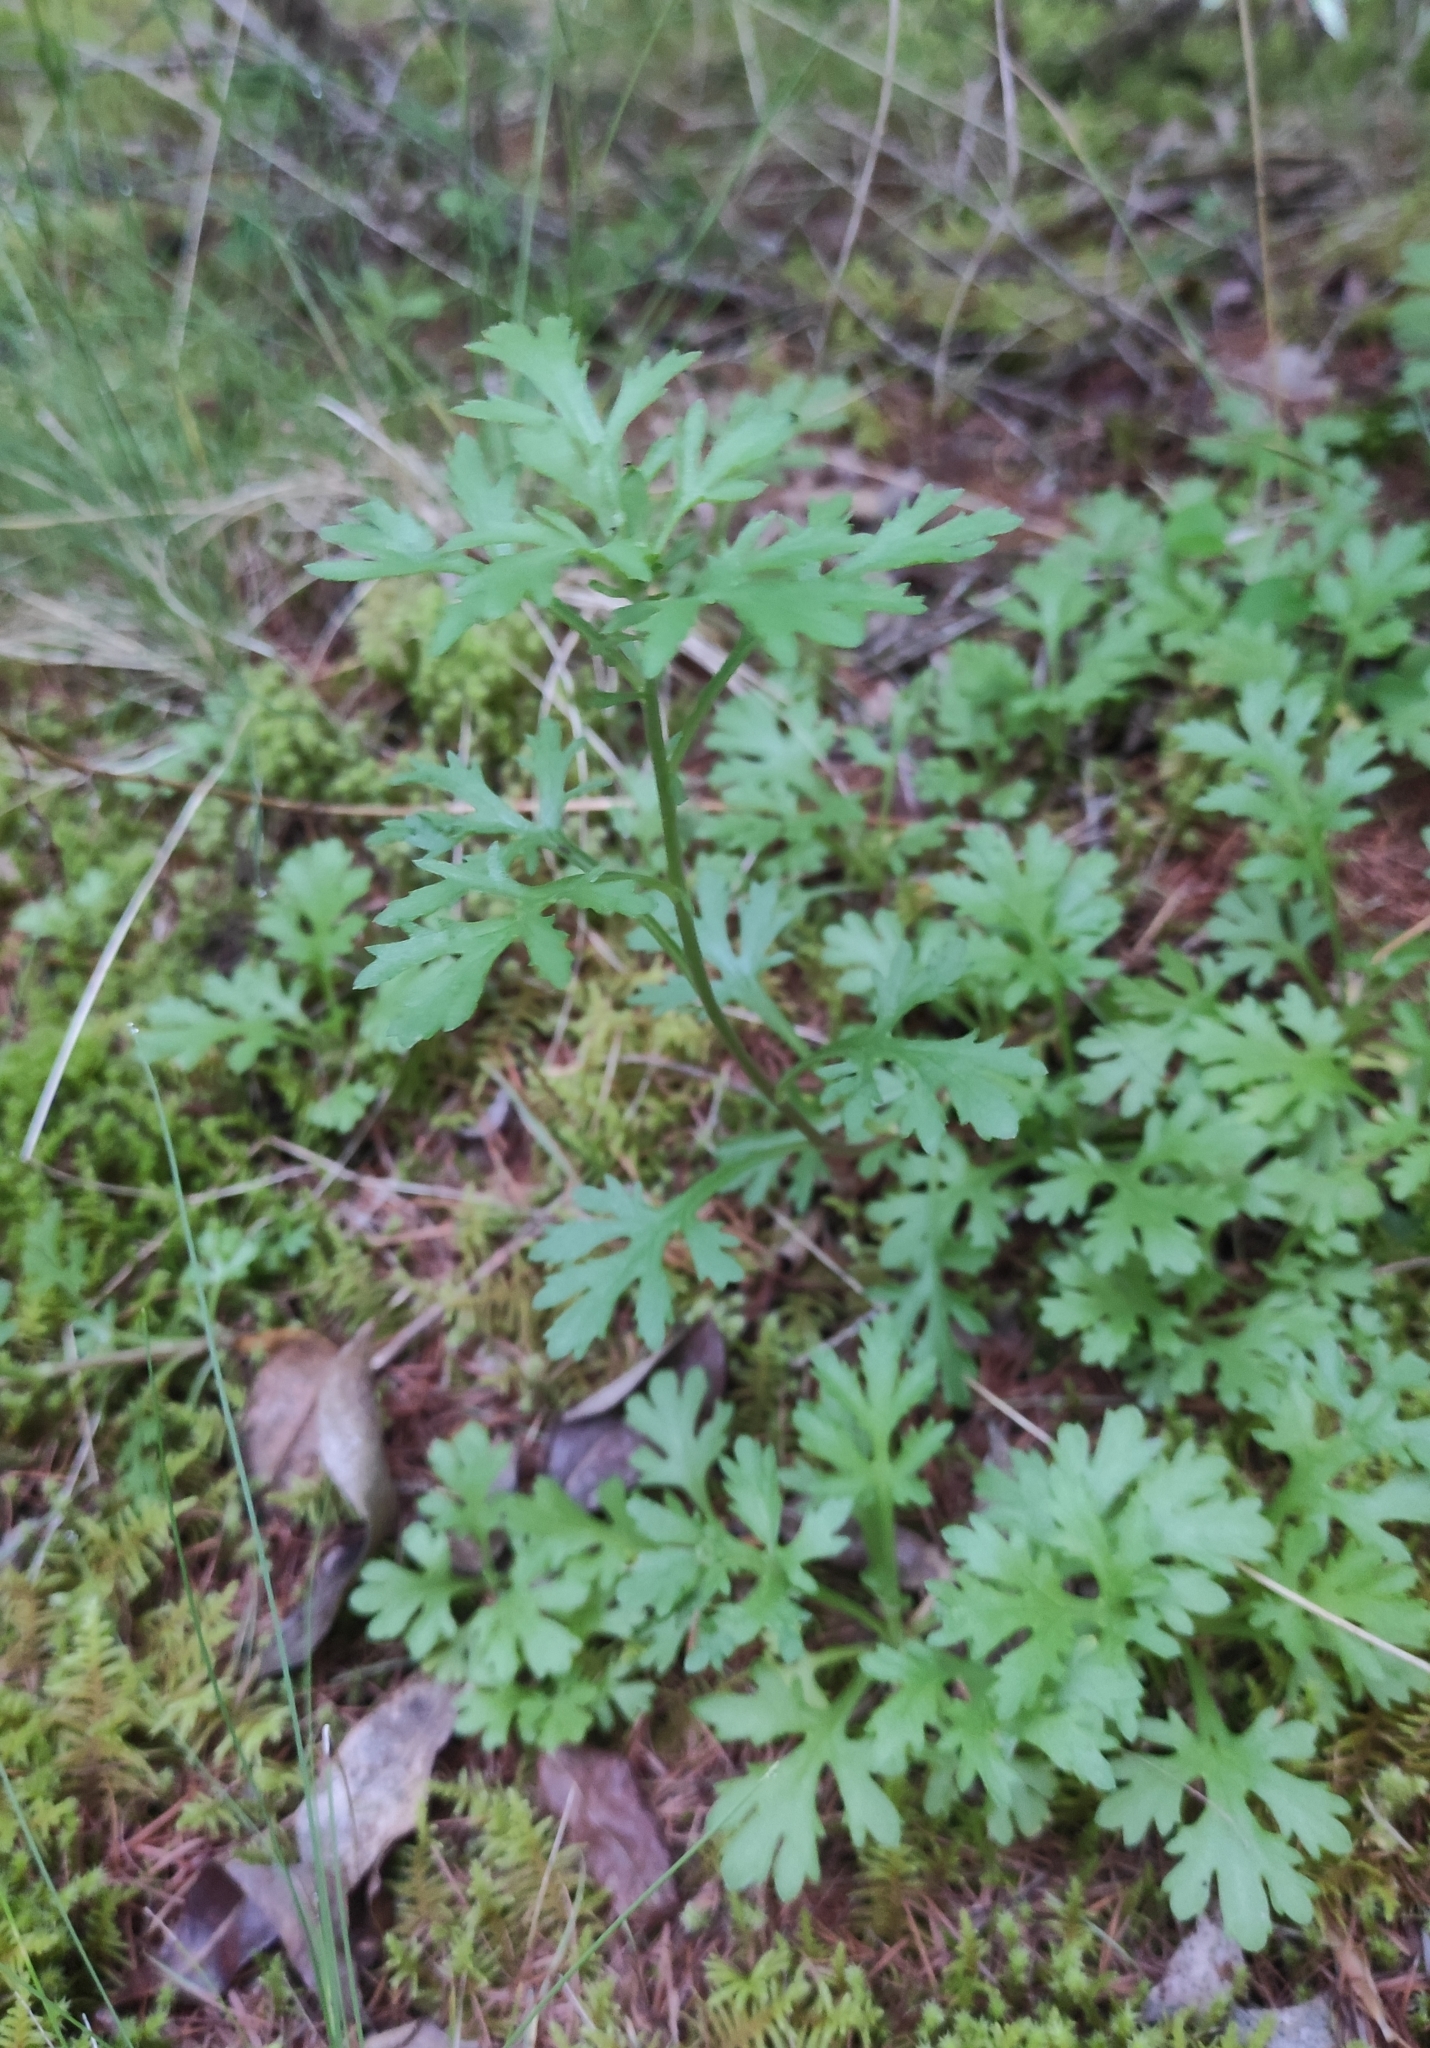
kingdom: Plantae
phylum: Tracheophyta
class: Magnoliopsida
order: Asterales
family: Asteraceae
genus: Chrysanthemum
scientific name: Chrysanthemum zawadzkii
